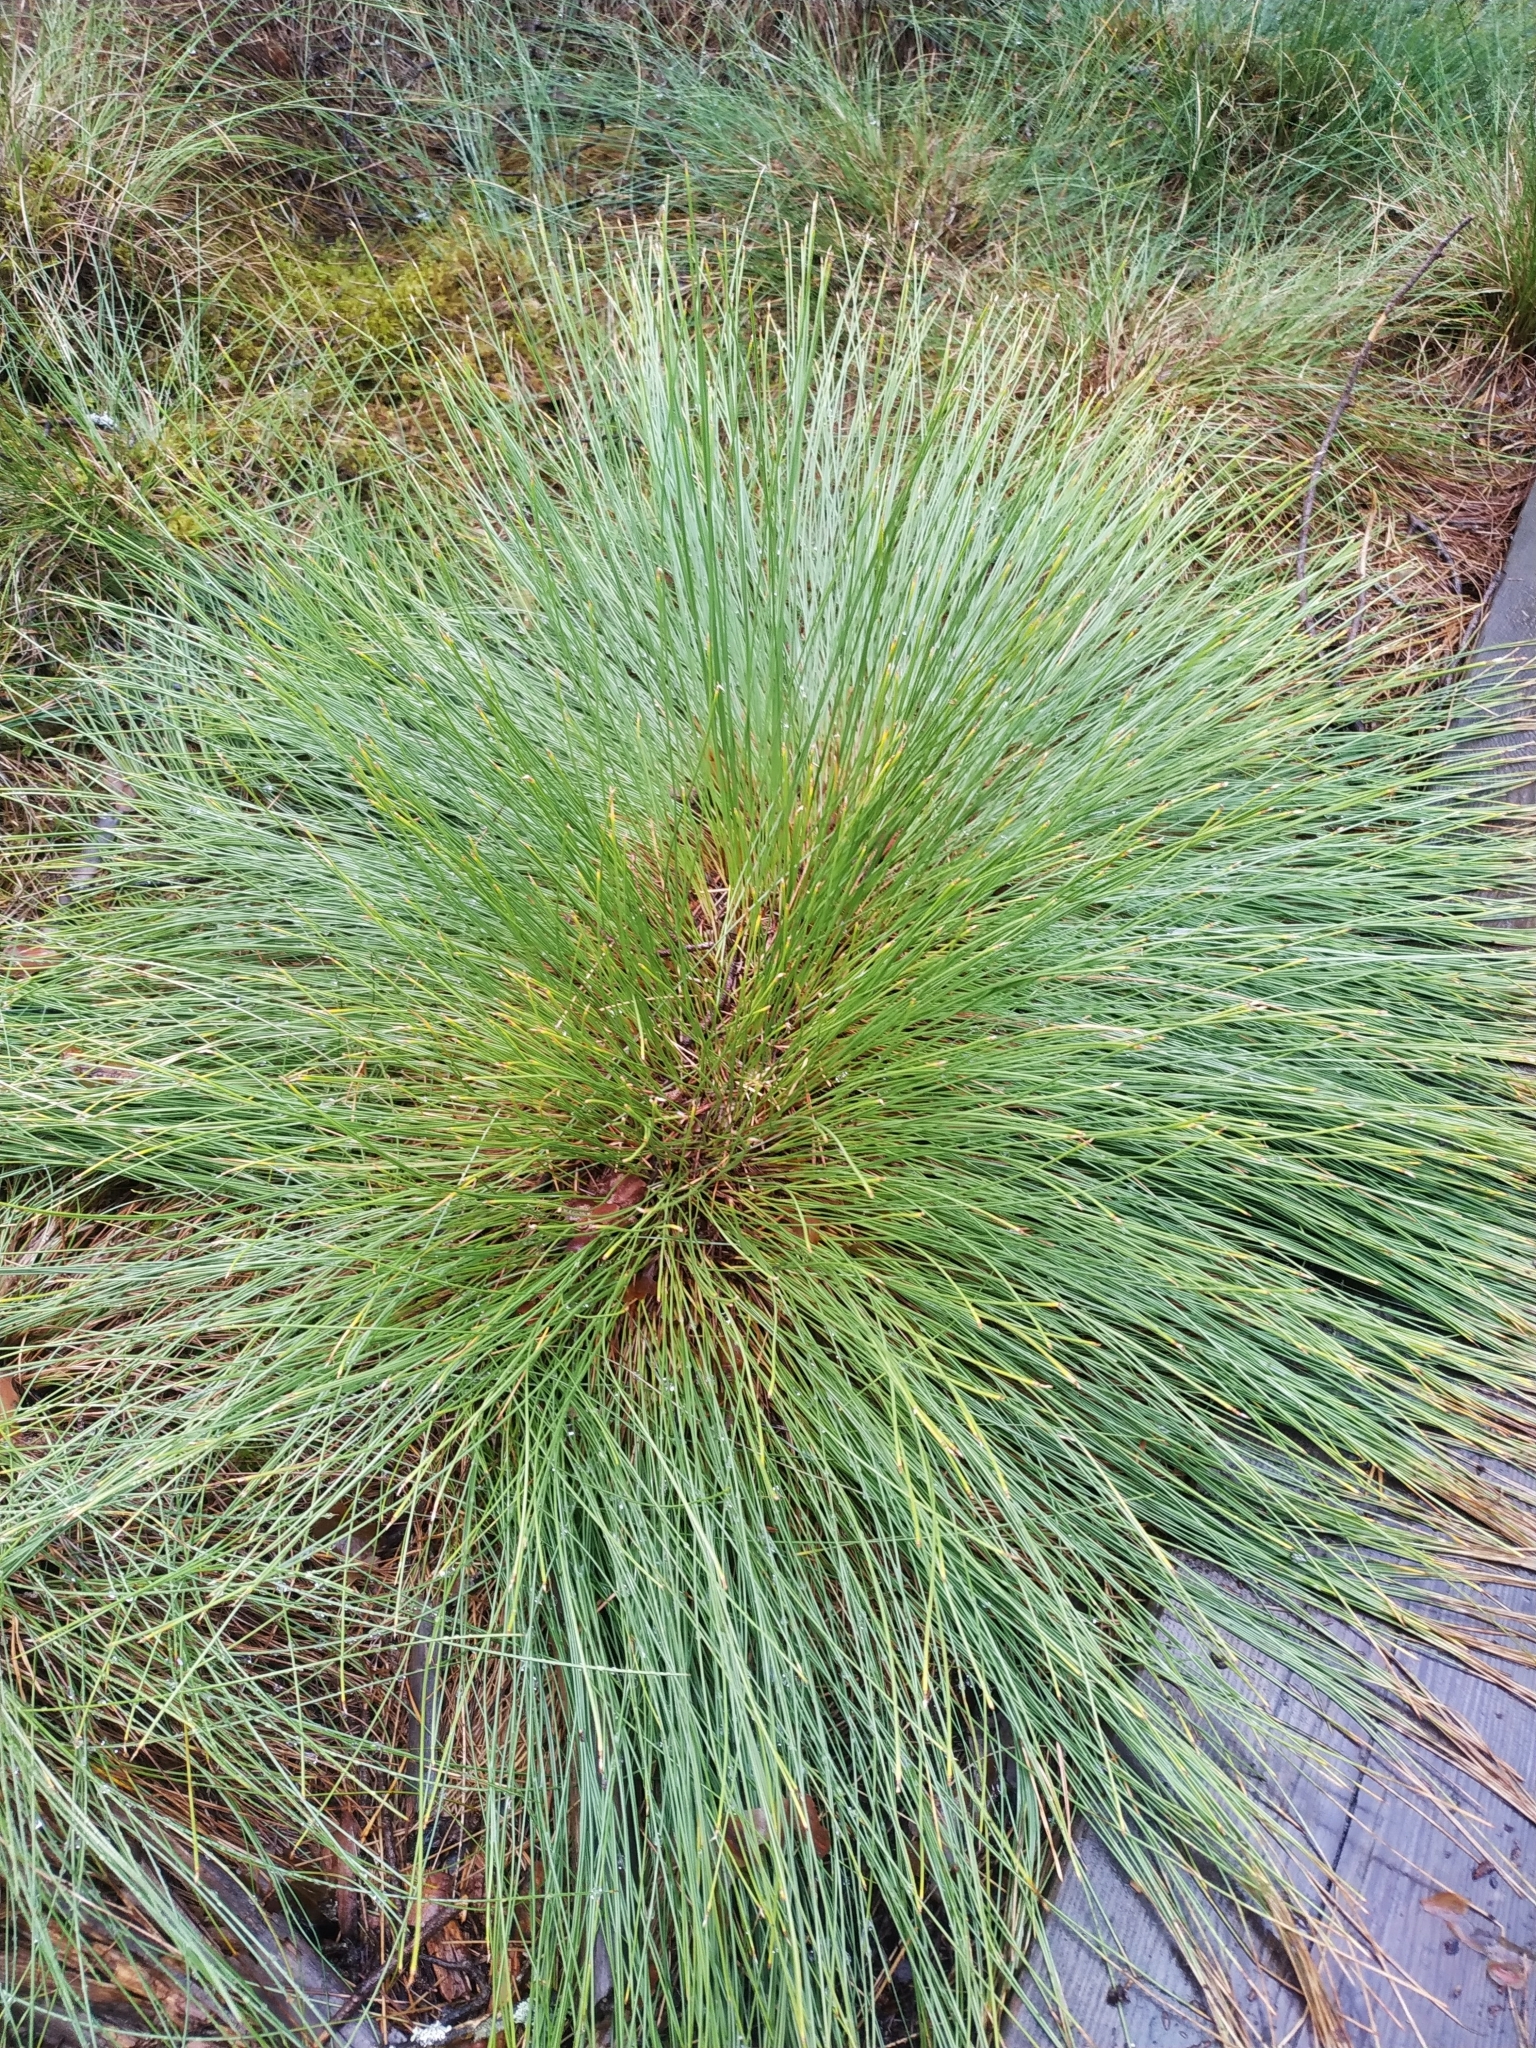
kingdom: Plantae
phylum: Tracheophyta
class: Liliopsida
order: Poales
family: Cyperaceae
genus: Trichophorum
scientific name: Trichophorum cespitosum
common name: Cespitose bulrush
